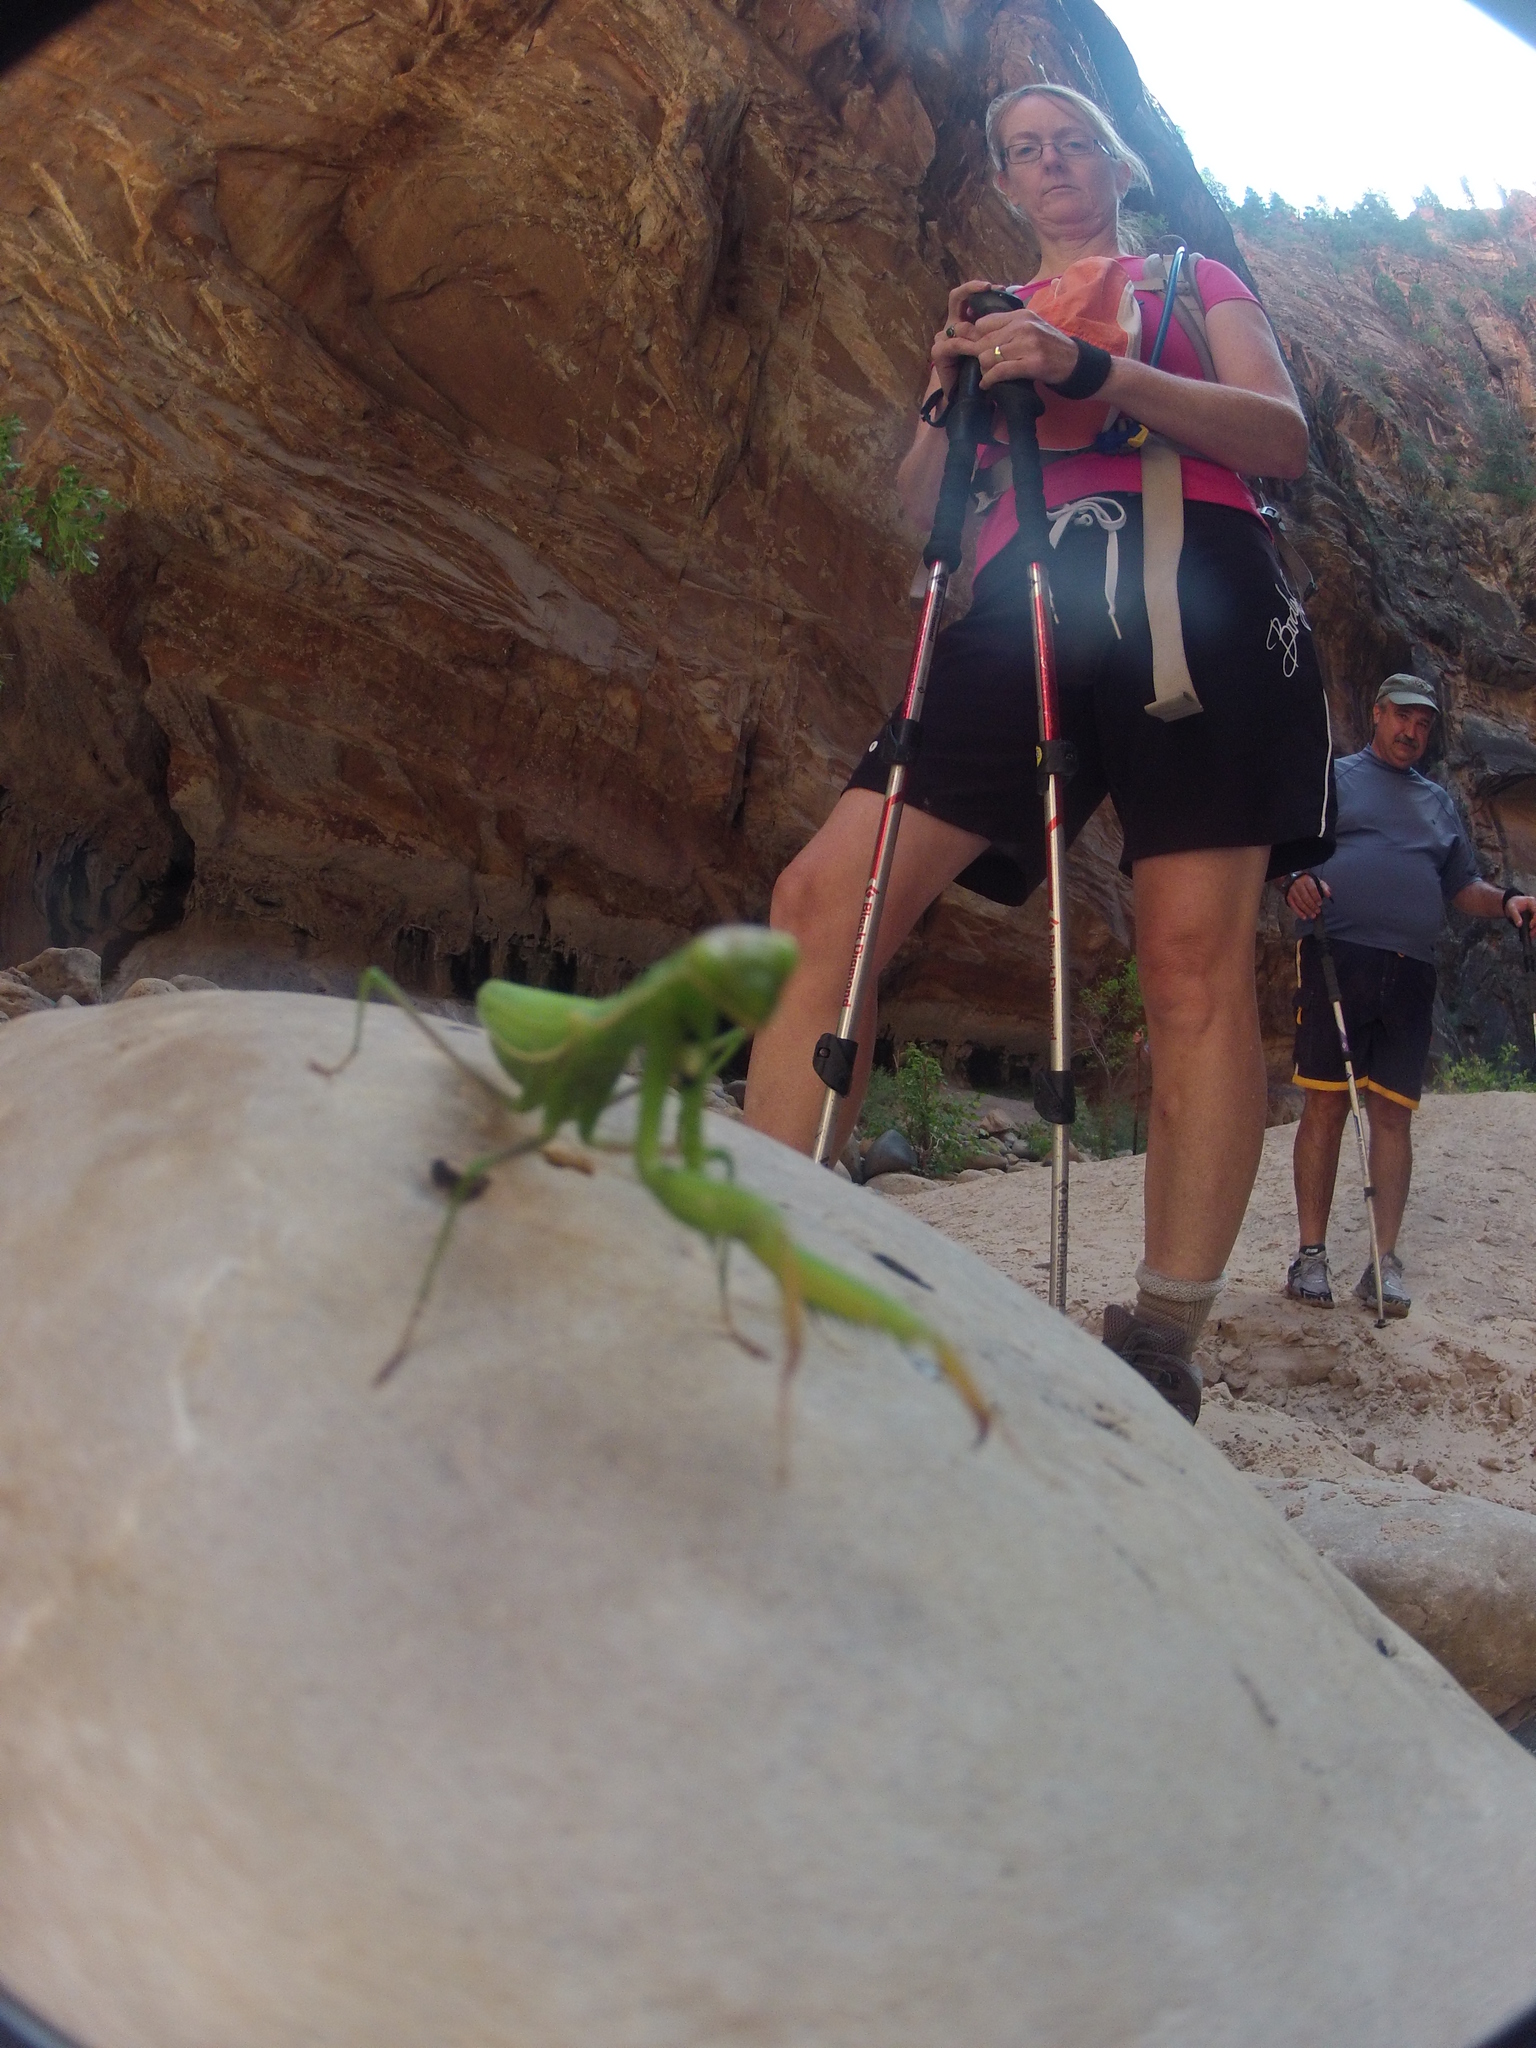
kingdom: Animalia
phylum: Arthropoda
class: Insecta
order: Mantodea
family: Mantidae
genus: Mantis
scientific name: Mantis religiosa
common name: Praying mantis
